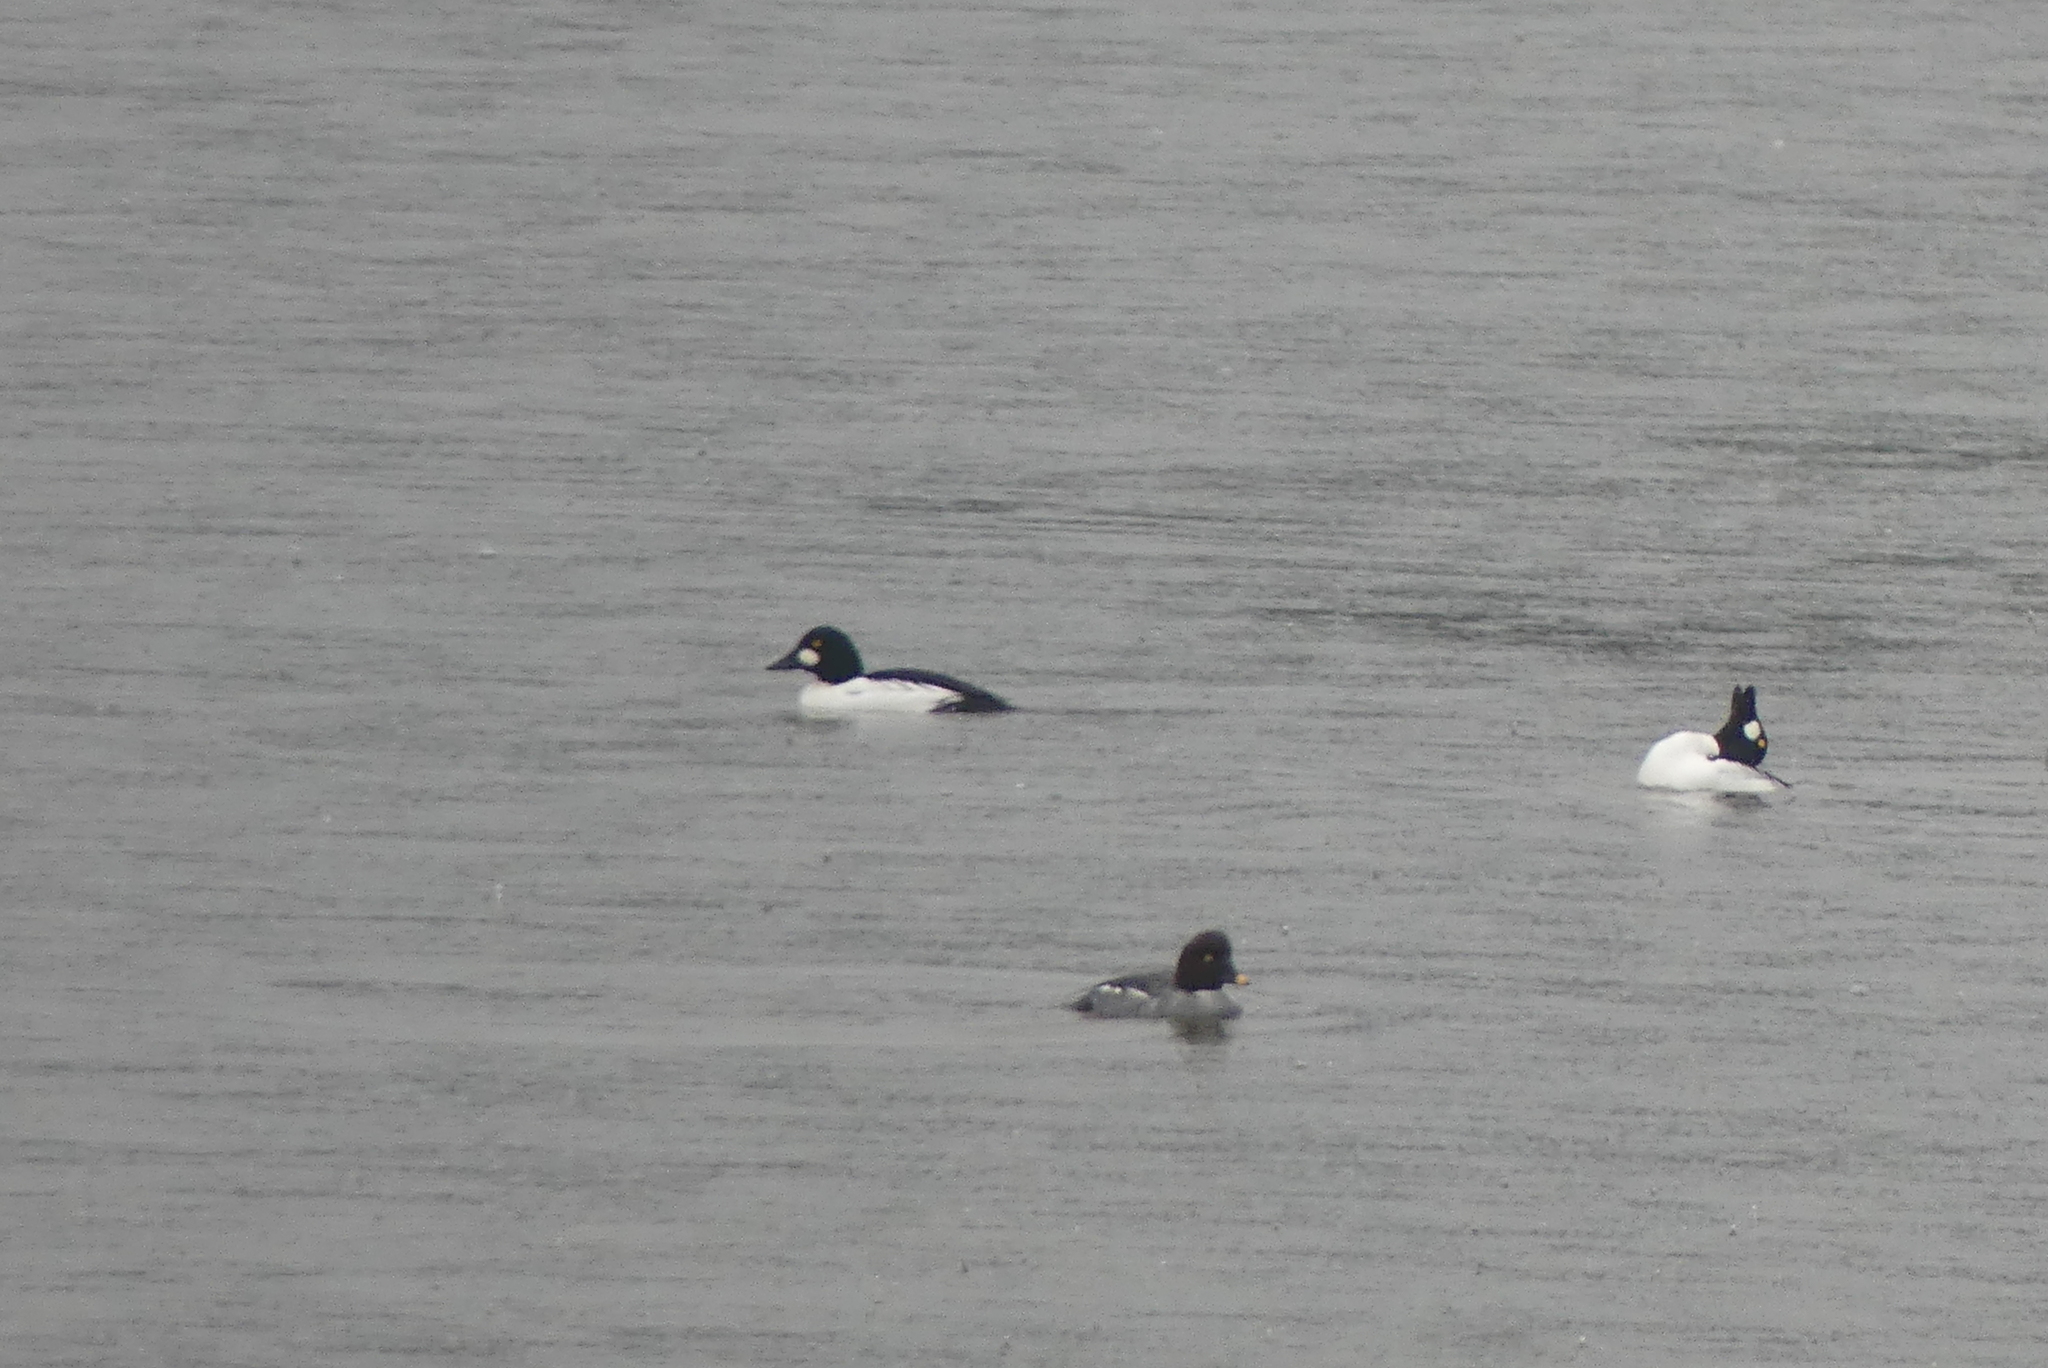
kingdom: Animalia
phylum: Chordata
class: Aves
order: Anseriformes
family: Anatidae
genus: Bucephala
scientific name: Bucephala clangula
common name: Common goldeneye
